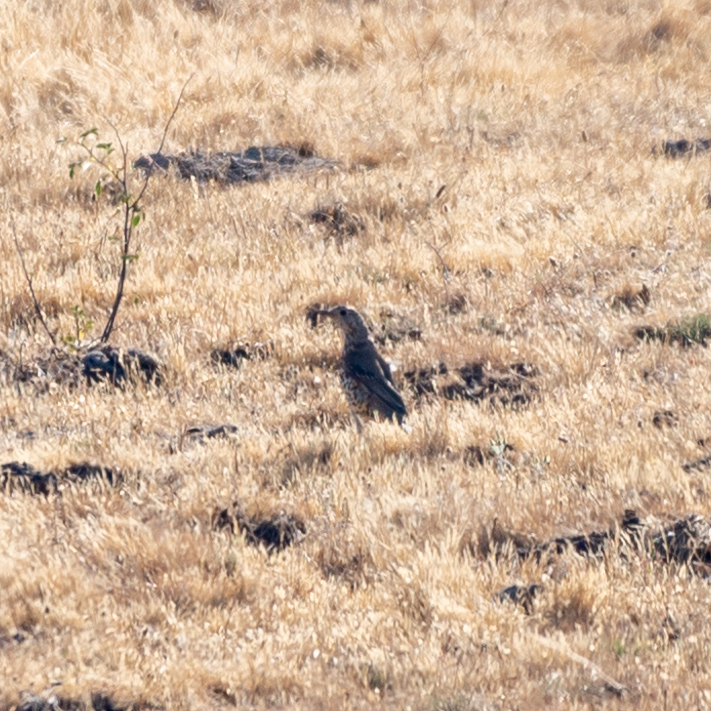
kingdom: Animalia
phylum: Chordata
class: Aves
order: Passeriformes
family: Turdidae
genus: Turdus
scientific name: Turdus viscivorus
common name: Mistle thrush
